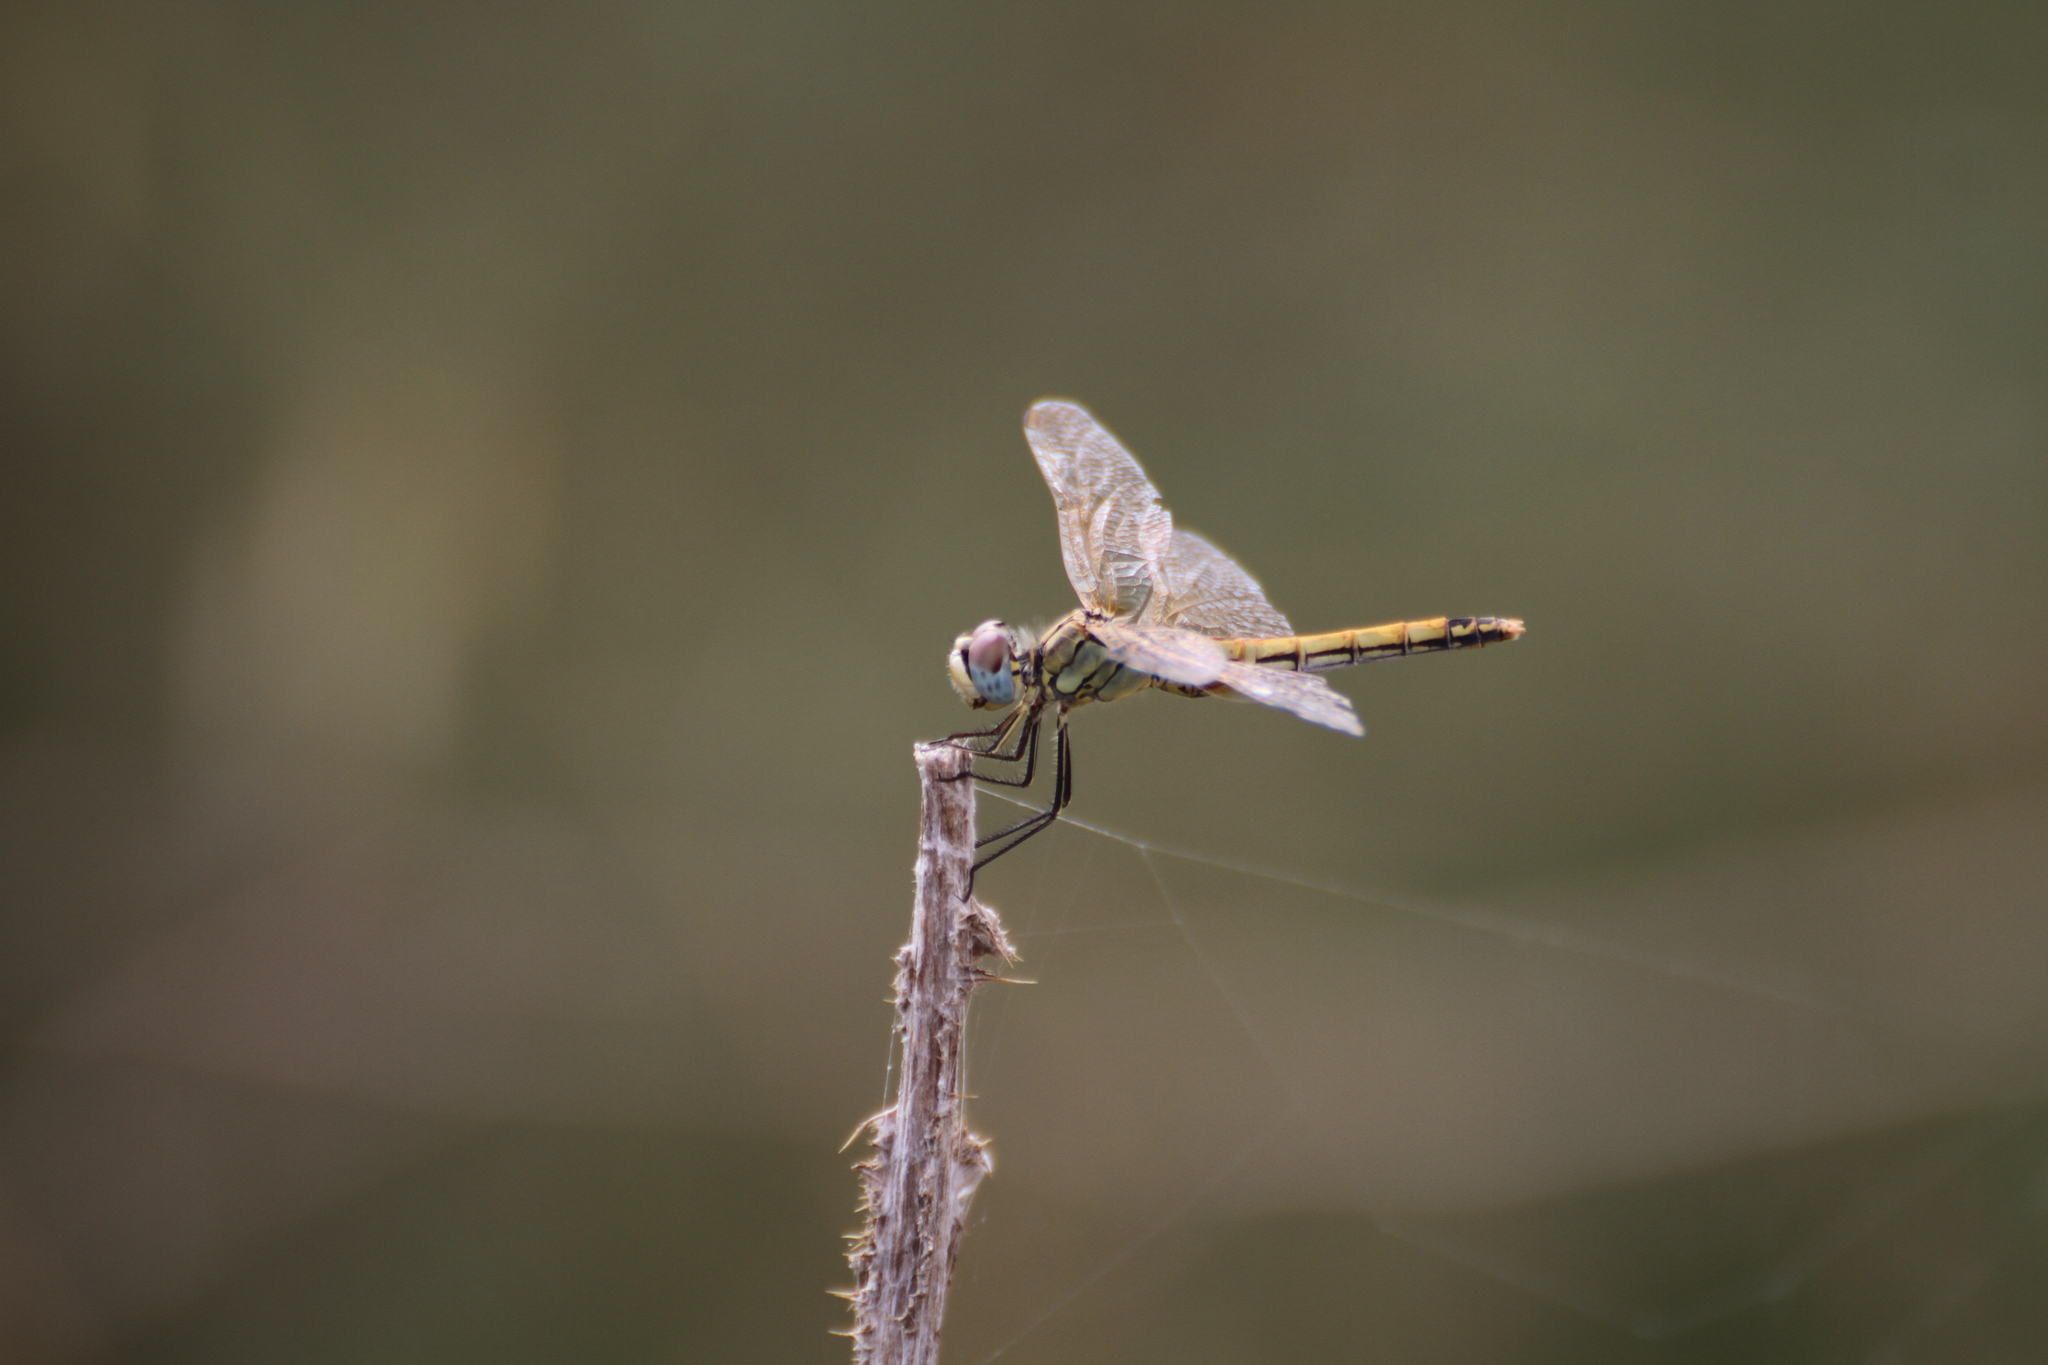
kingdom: Animalia
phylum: Arthropoda
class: Insecta
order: Odonata
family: Libellulidae
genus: Sympetrum
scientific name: Sympetrum fonscolombii
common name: Red-veined darter
